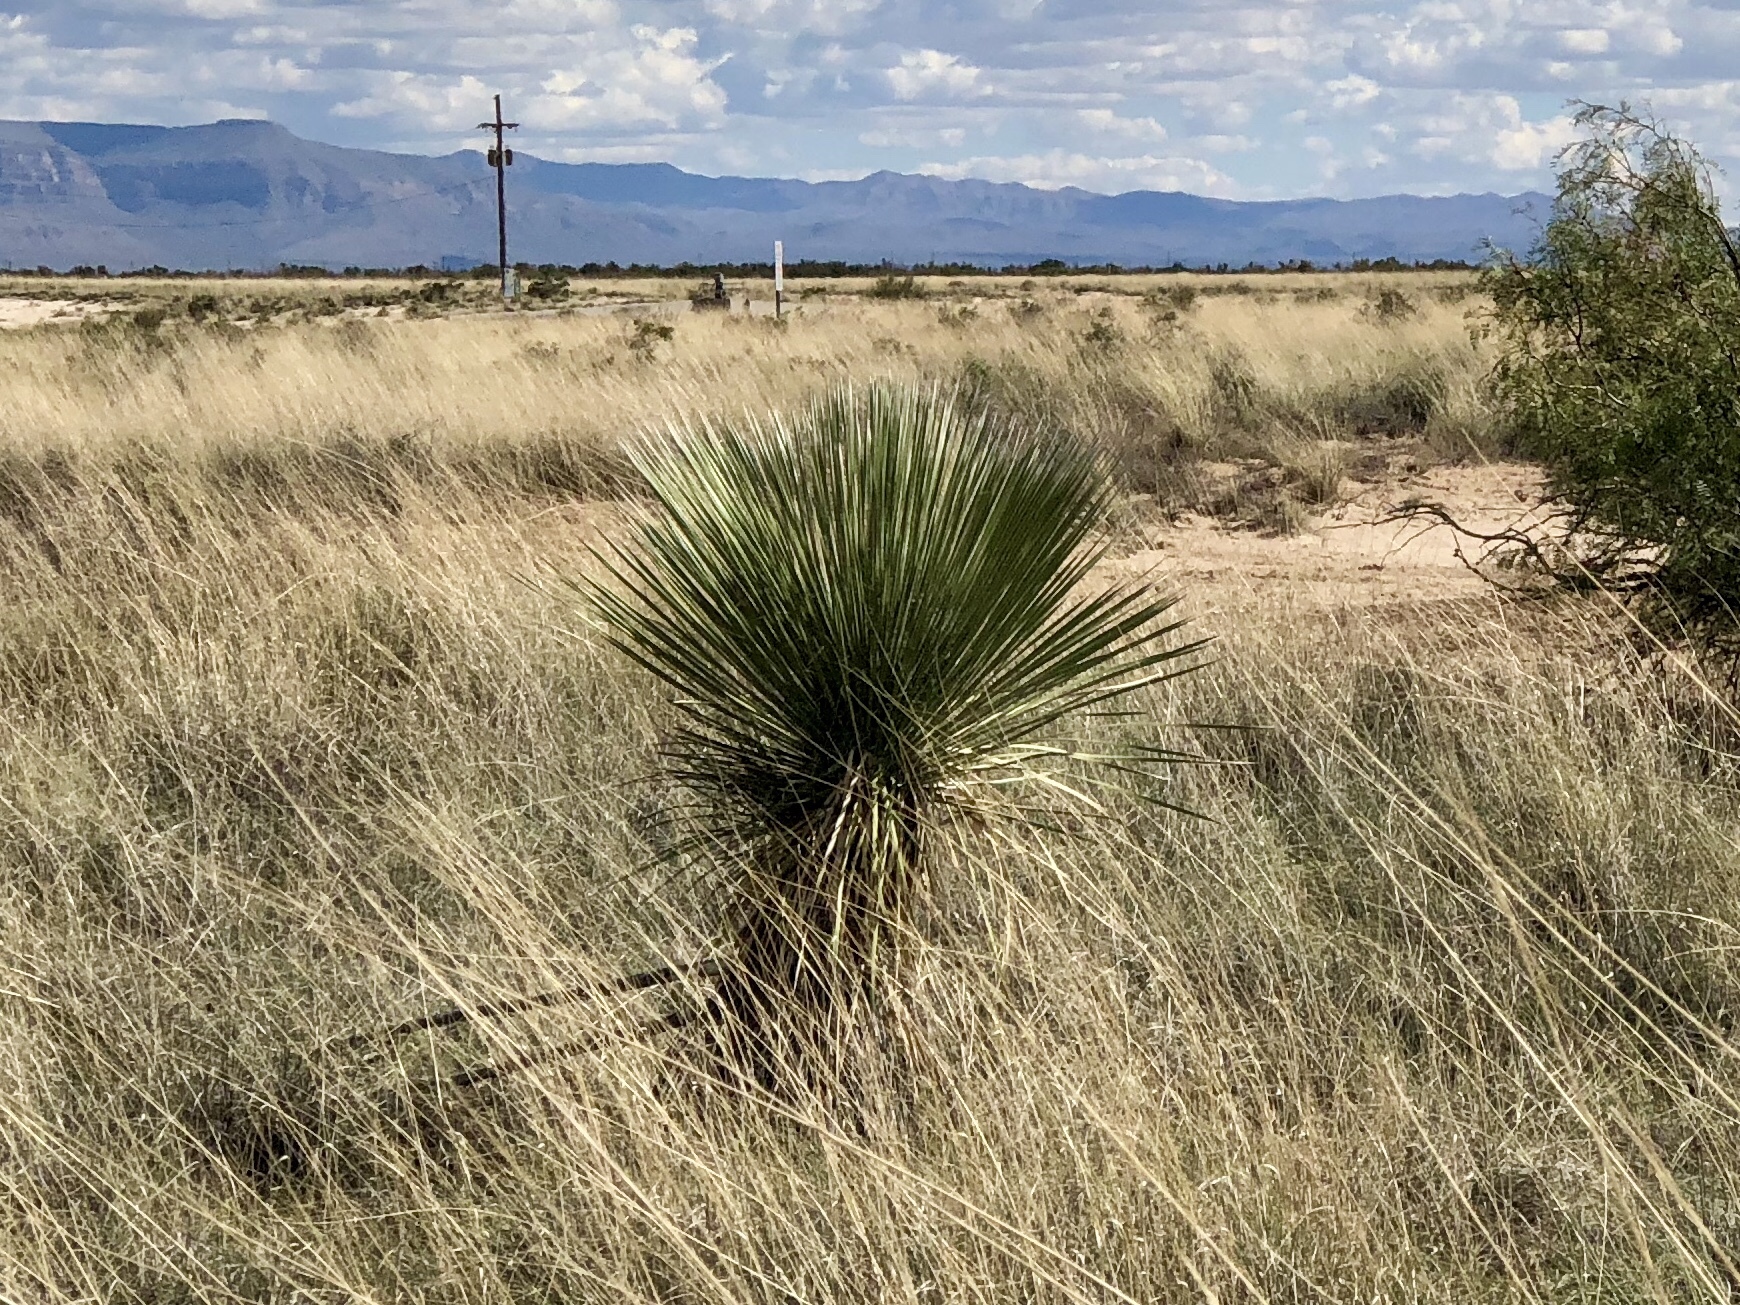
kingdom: Plantae
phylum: Tracheophyta
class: Liliopsida
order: Asparagales
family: Asparagaceae
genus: Yucca
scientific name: Yucca elata
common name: Palmella
